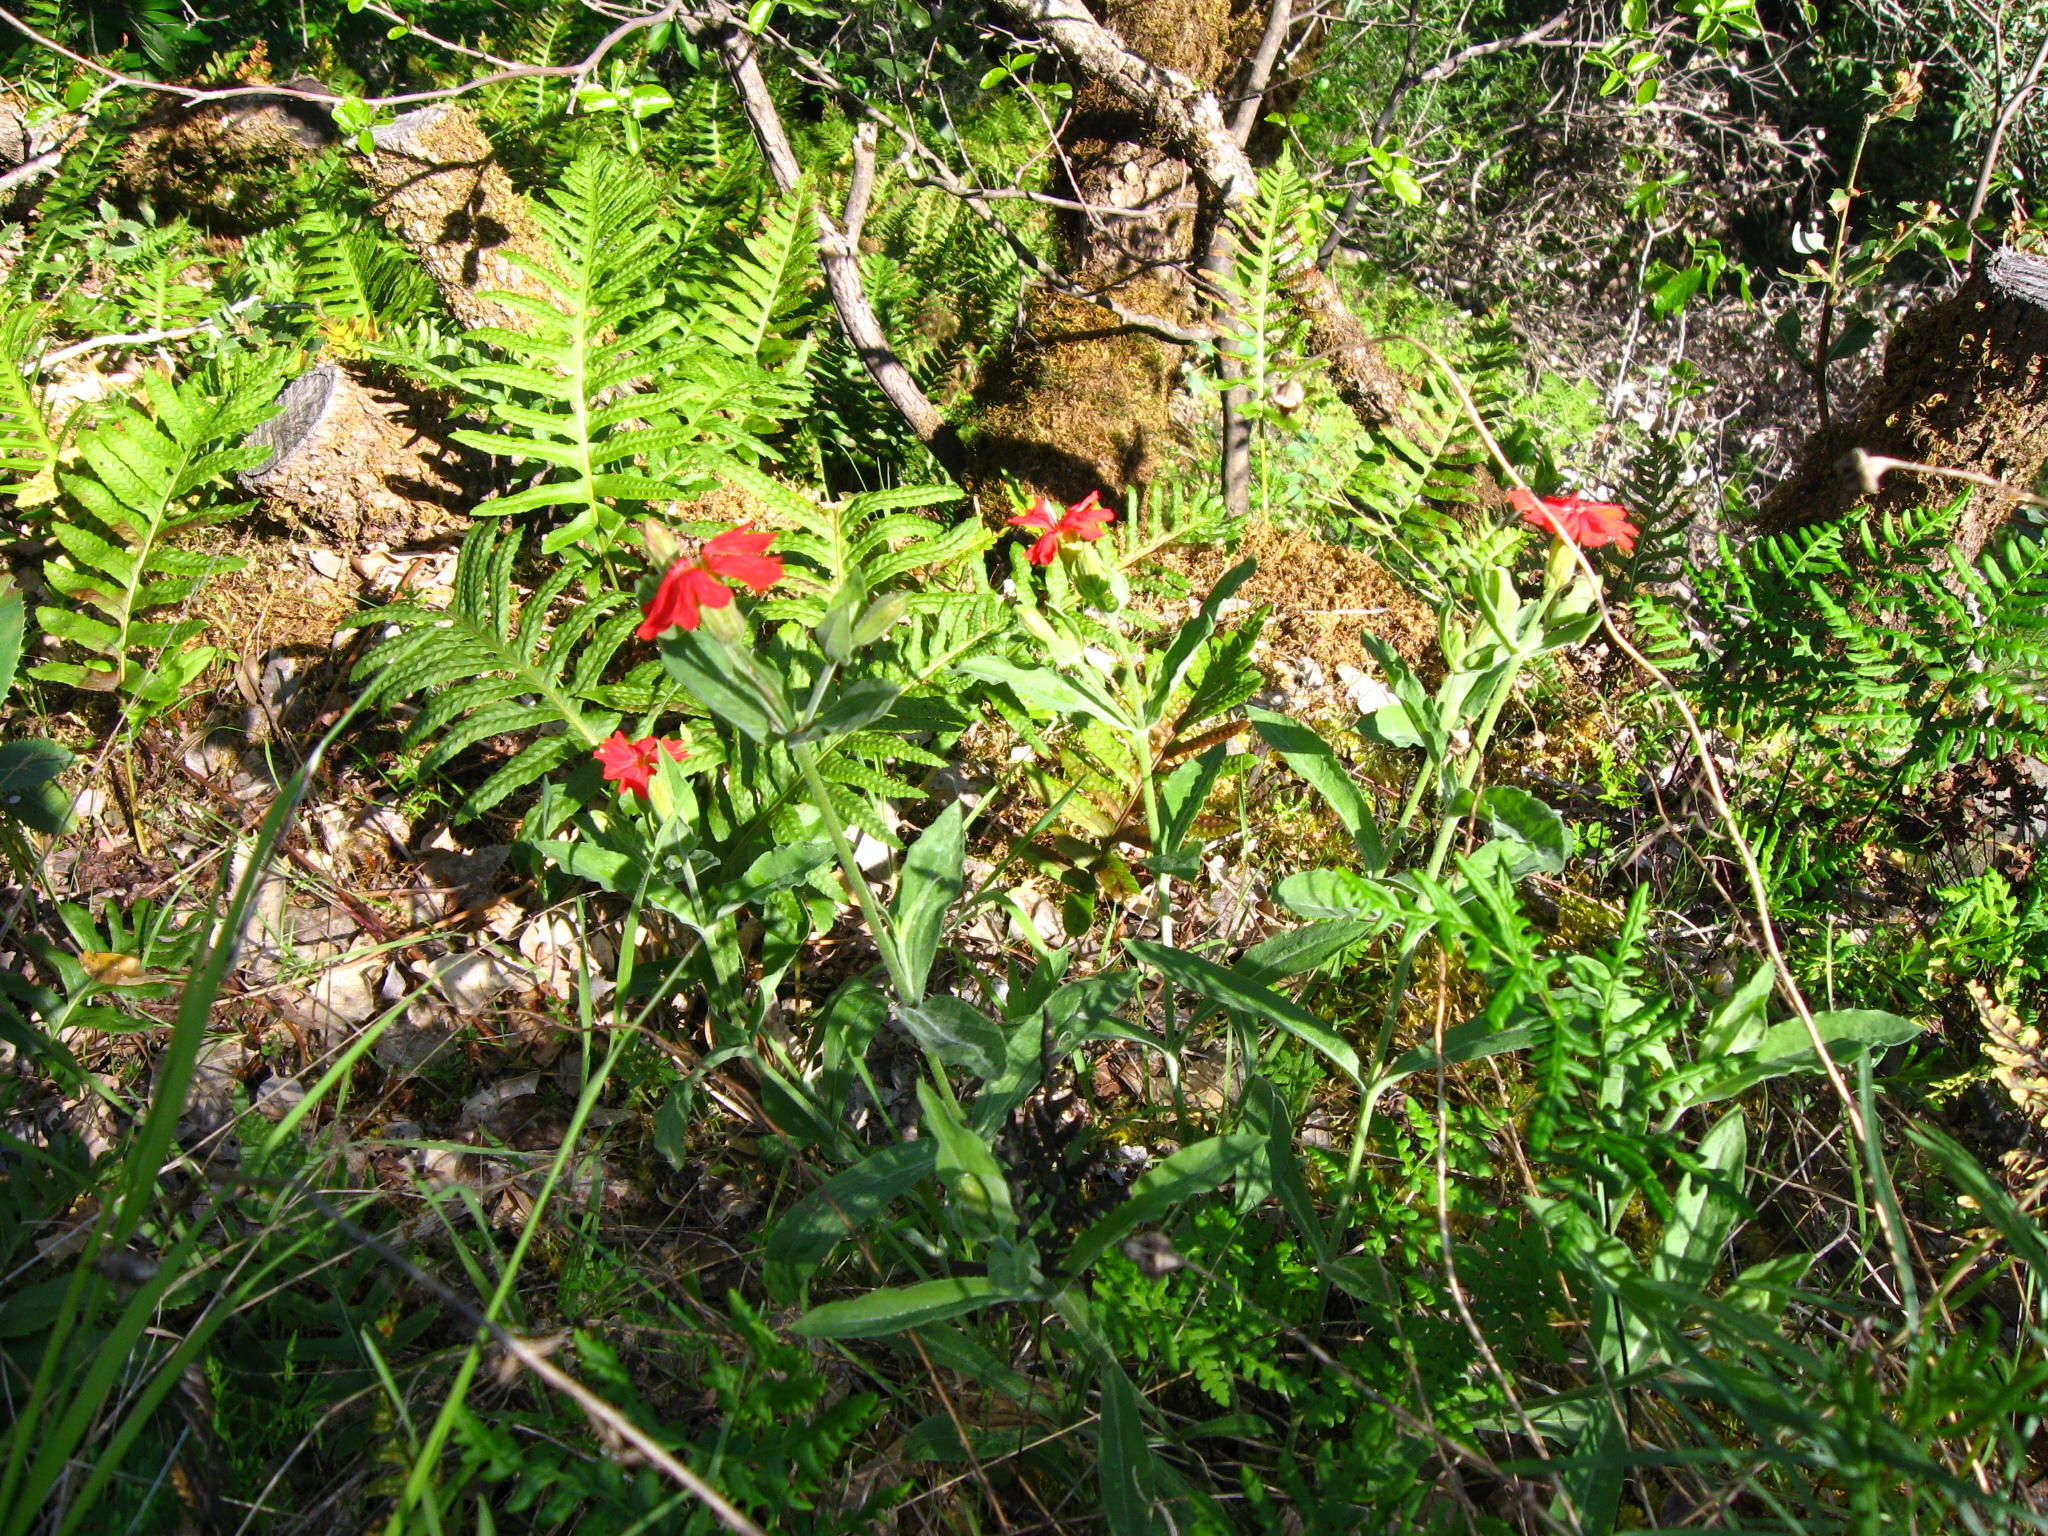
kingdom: Plantae
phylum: Tracheophyta
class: Magnoliopsida
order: Caryophyllales
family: Caryophyllaceae
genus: Silene
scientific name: Silene laciniata
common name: Indian-pink
